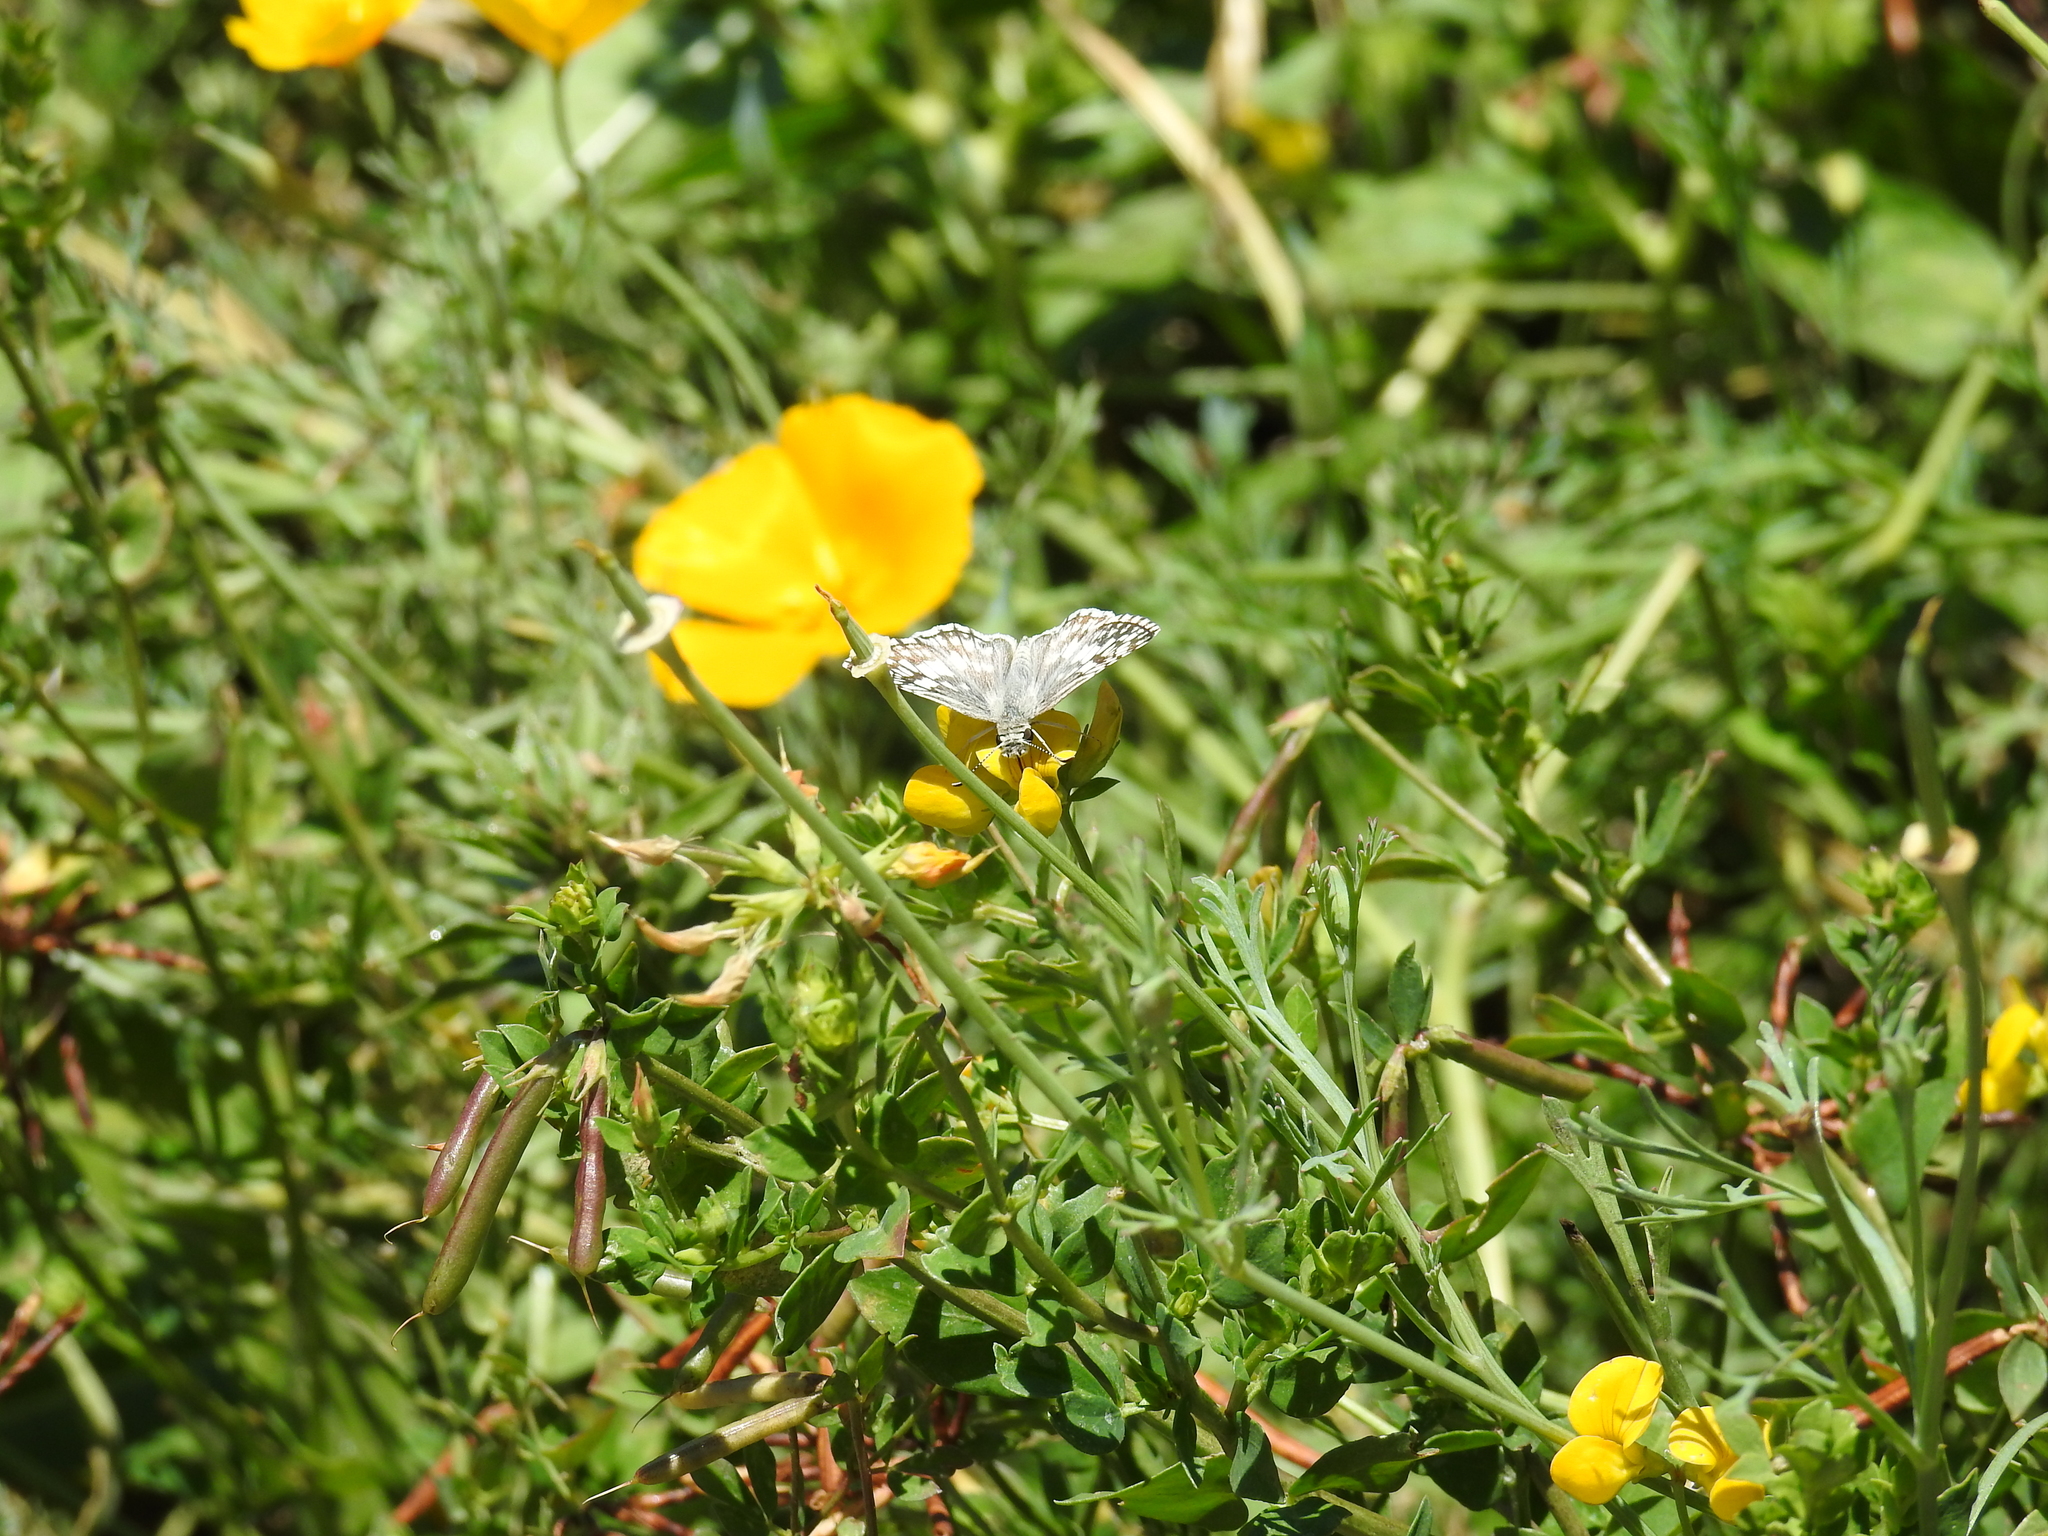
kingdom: Animalia
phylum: Arthropoda
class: Insecta
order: Lepidoptera
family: Hesperiidae
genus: Burnsius
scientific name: Burnsius albezens
